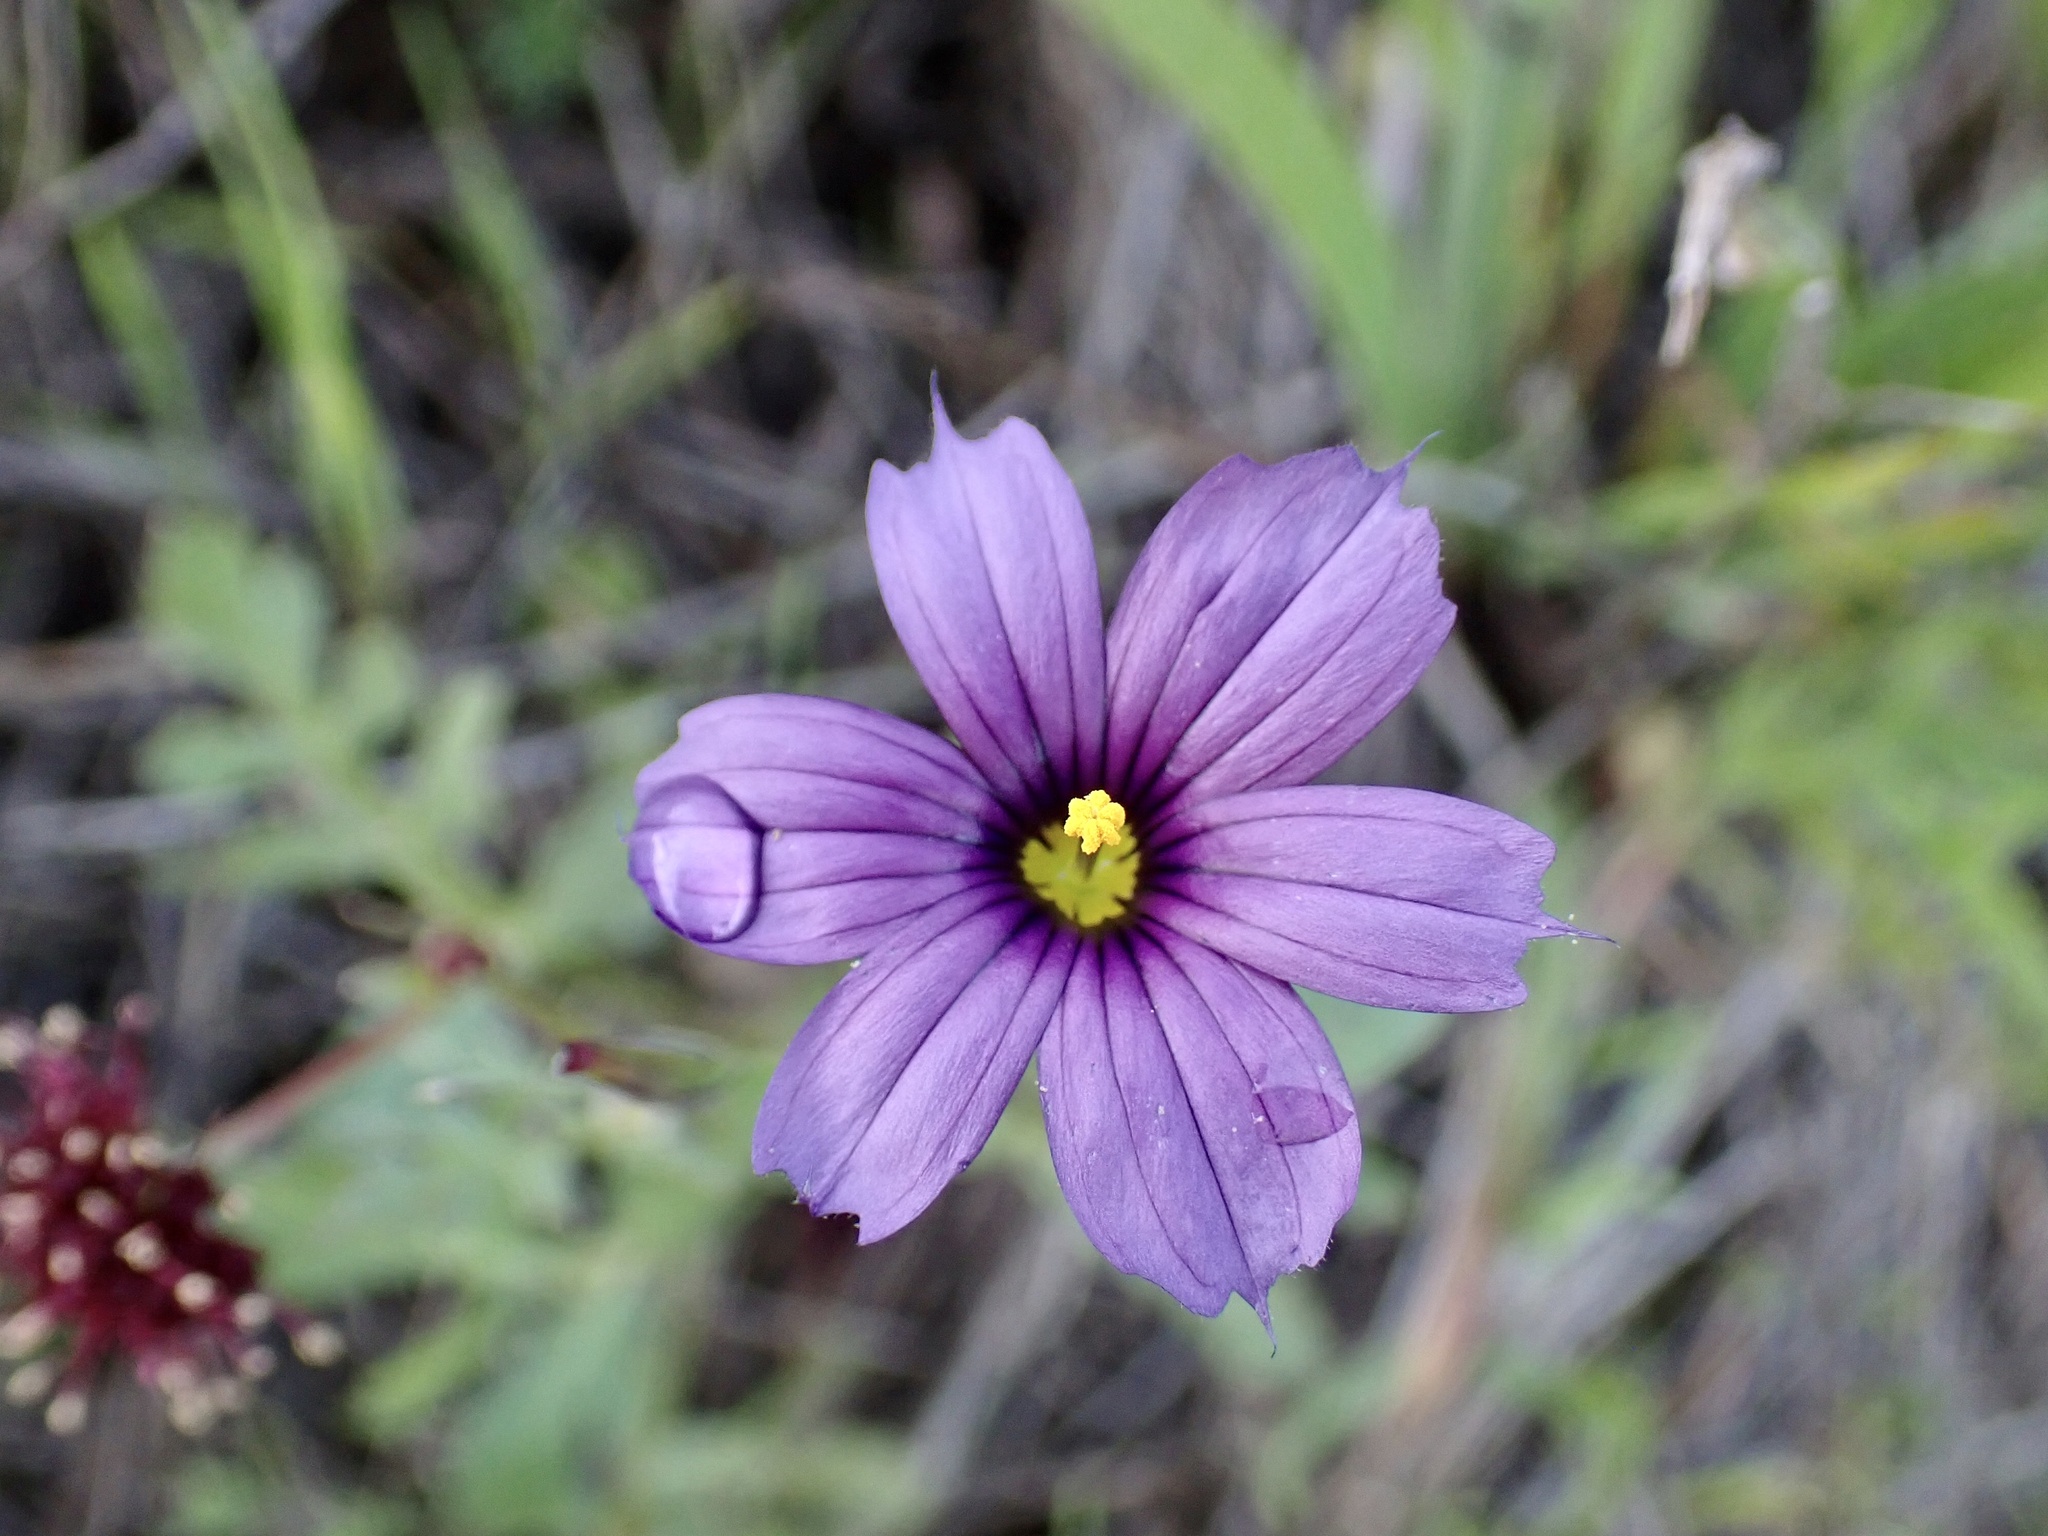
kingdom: Plantae
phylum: Tracheophyta
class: Liliopsida
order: Asparagales
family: Iridaceae
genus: Sisyrinchium
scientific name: Sisyrinchium bellum
